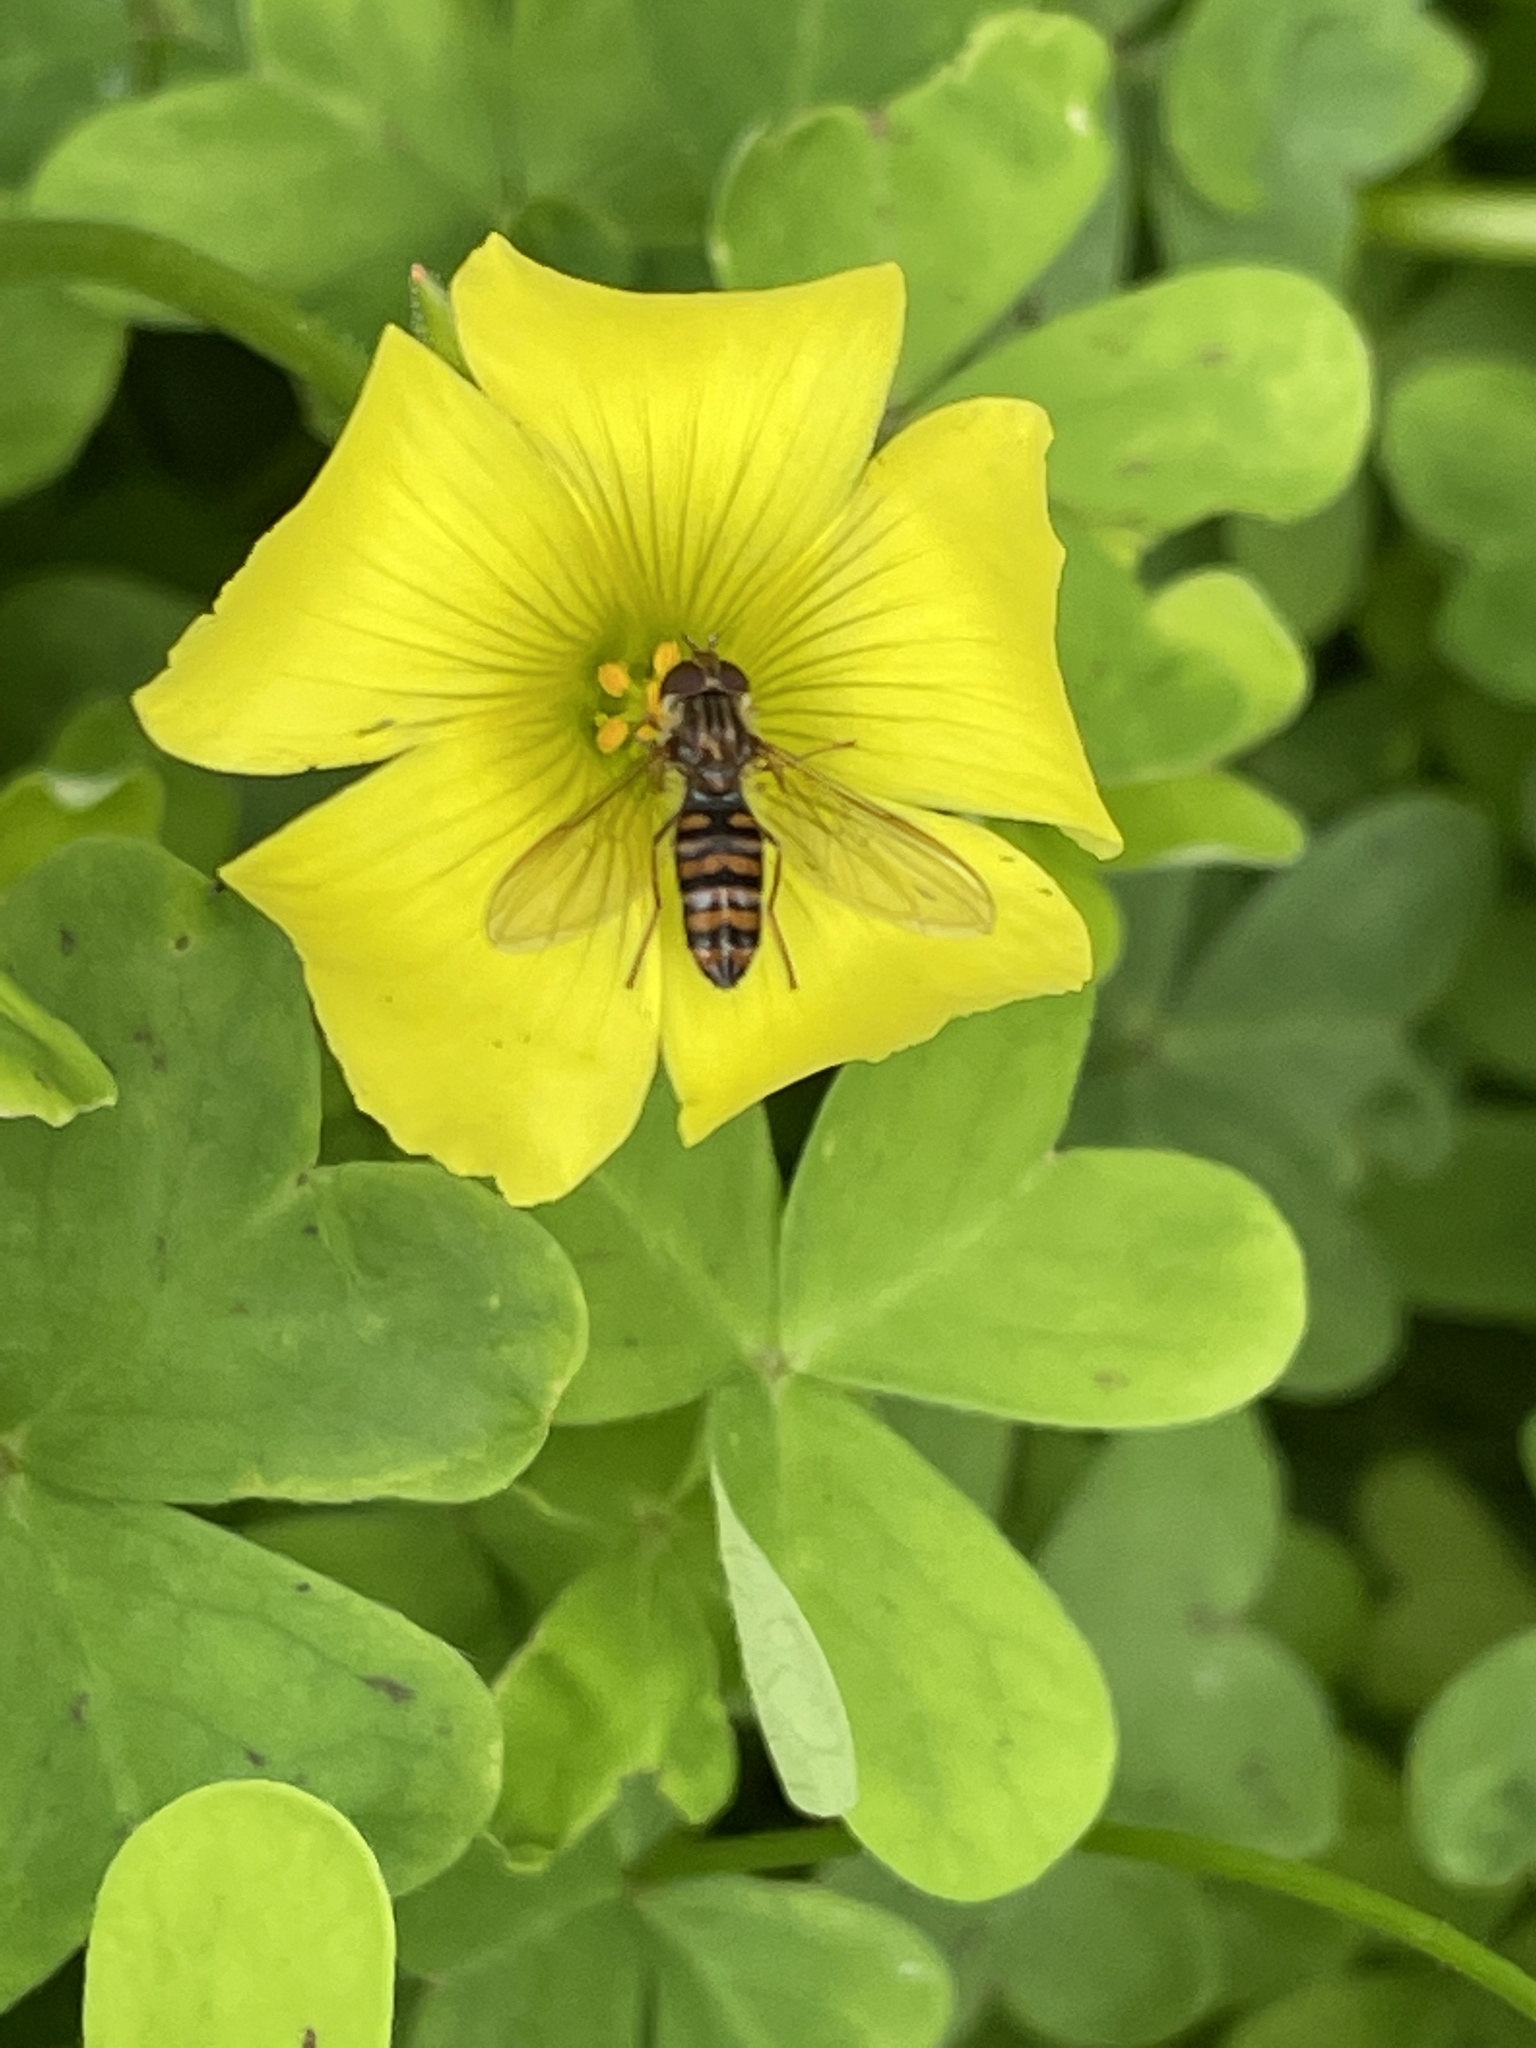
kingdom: Animalia
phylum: Arthropoda
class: Insecta
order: Diptera
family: Syrphidae
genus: Episyrphus
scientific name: Episyrphus balteatus
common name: Marmalade hoverfly
